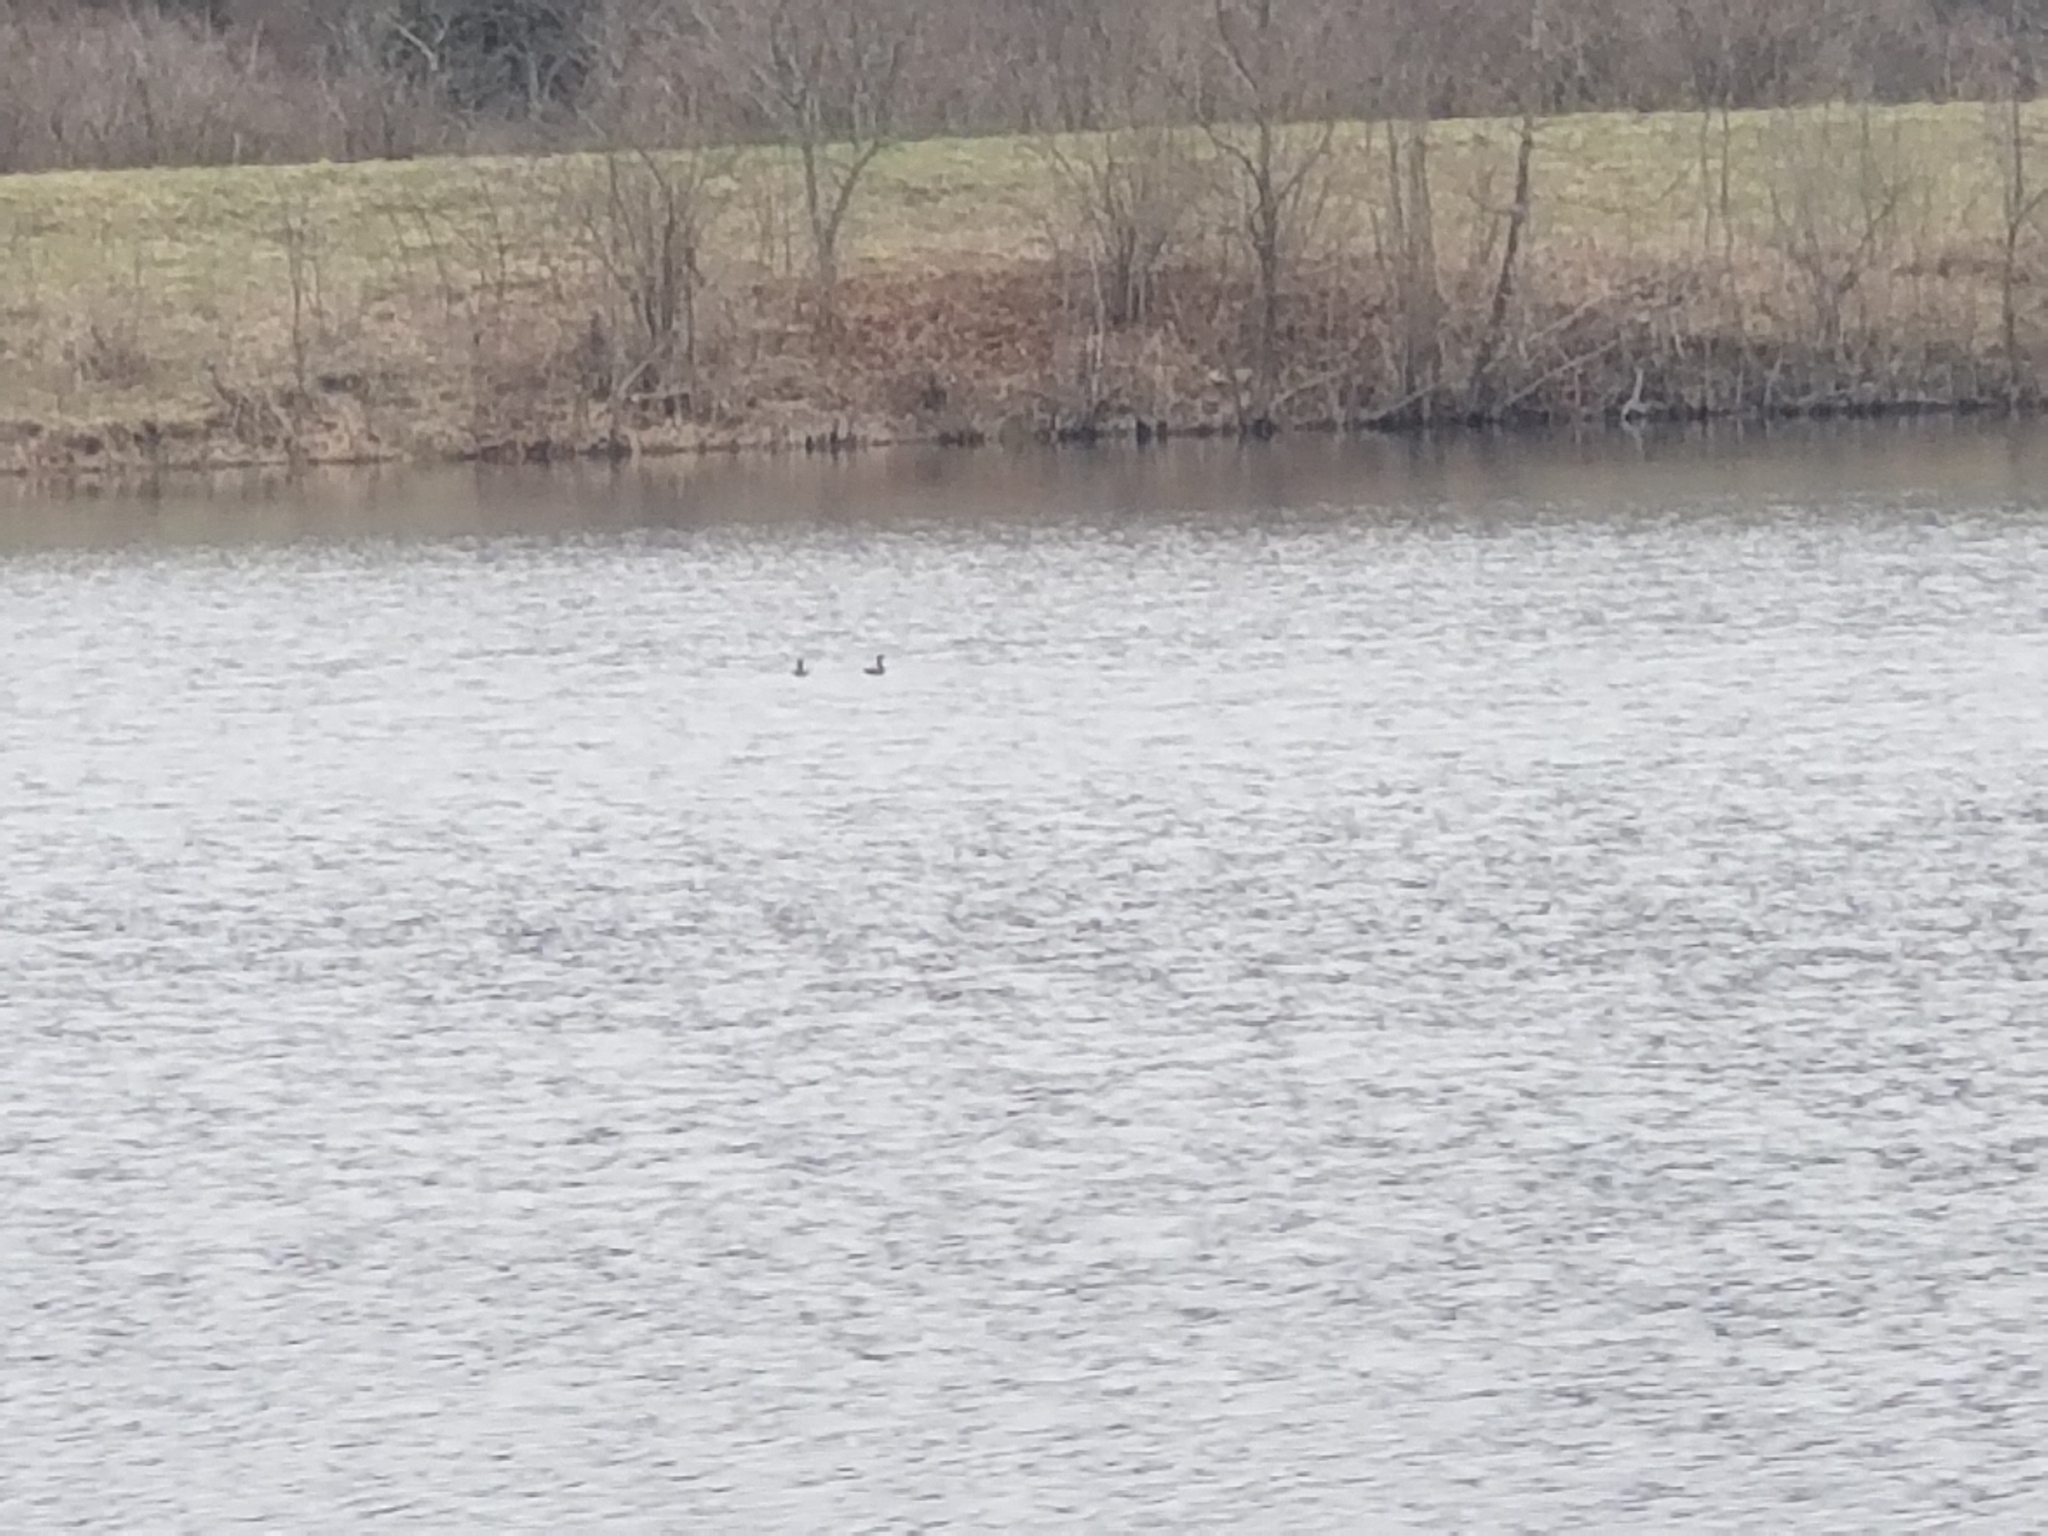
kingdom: Animalia
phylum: Chordata
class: Aves
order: Podicipediformes
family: Podicipedidae
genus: Podilymbus
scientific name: Podilymbus podiceps
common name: Pied-billed grebe
